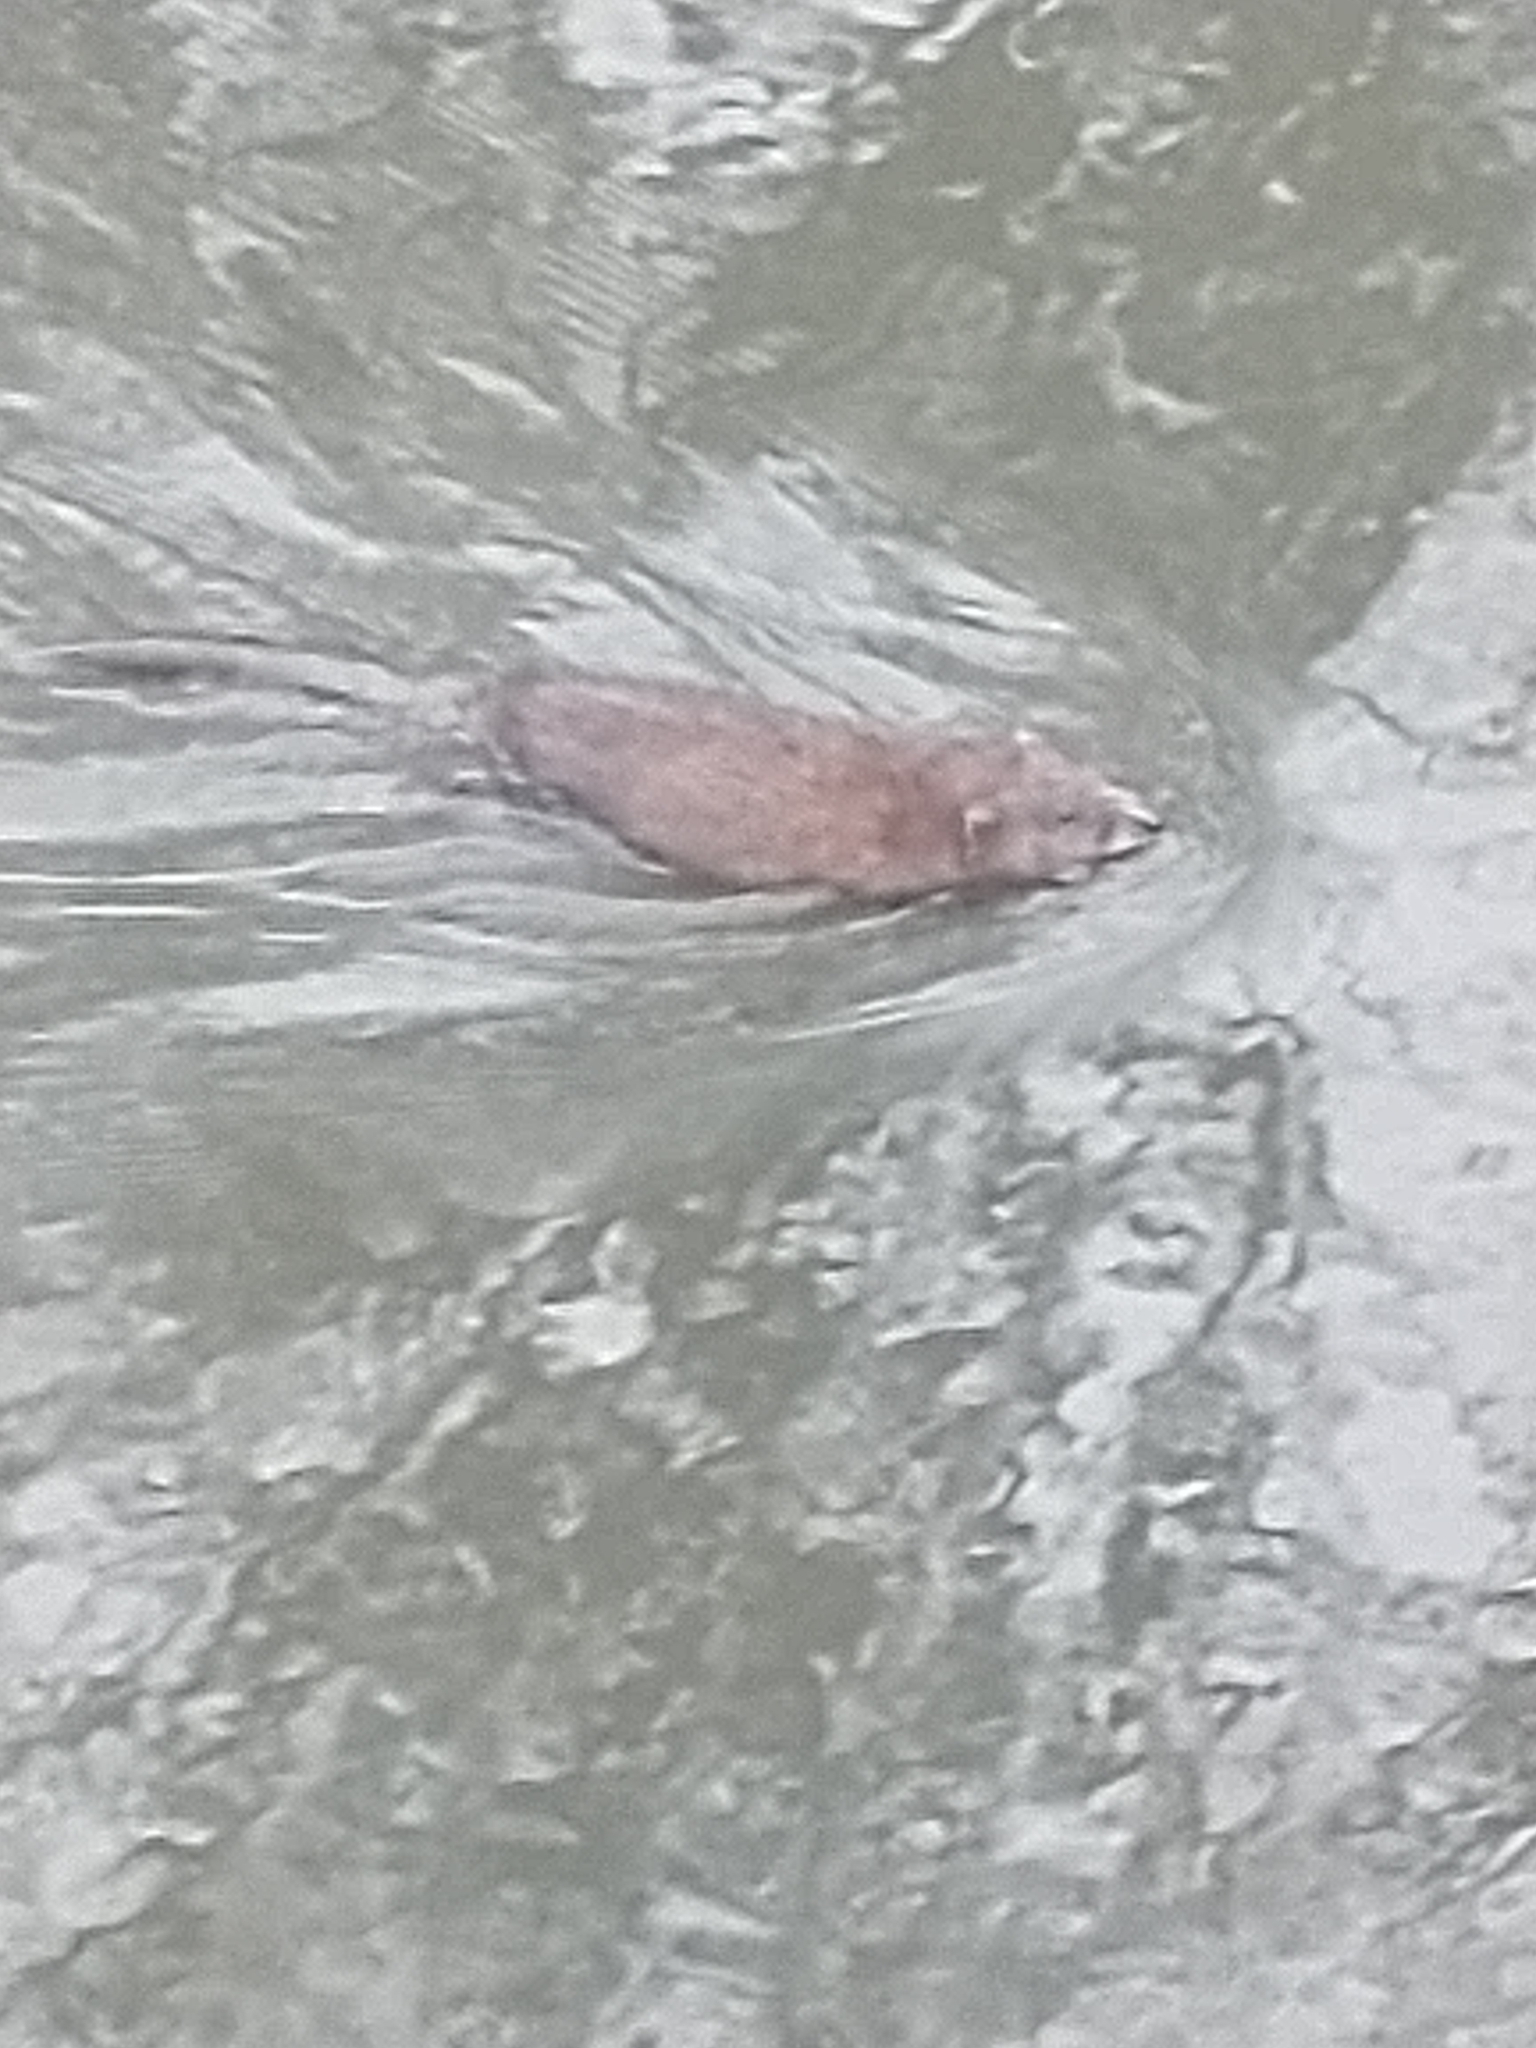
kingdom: Animalia
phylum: Chordata
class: Mammalia
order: Rodentia
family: Cricetidae
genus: Ondatra
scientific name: Ondatra zibethicus
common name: Muskrat
